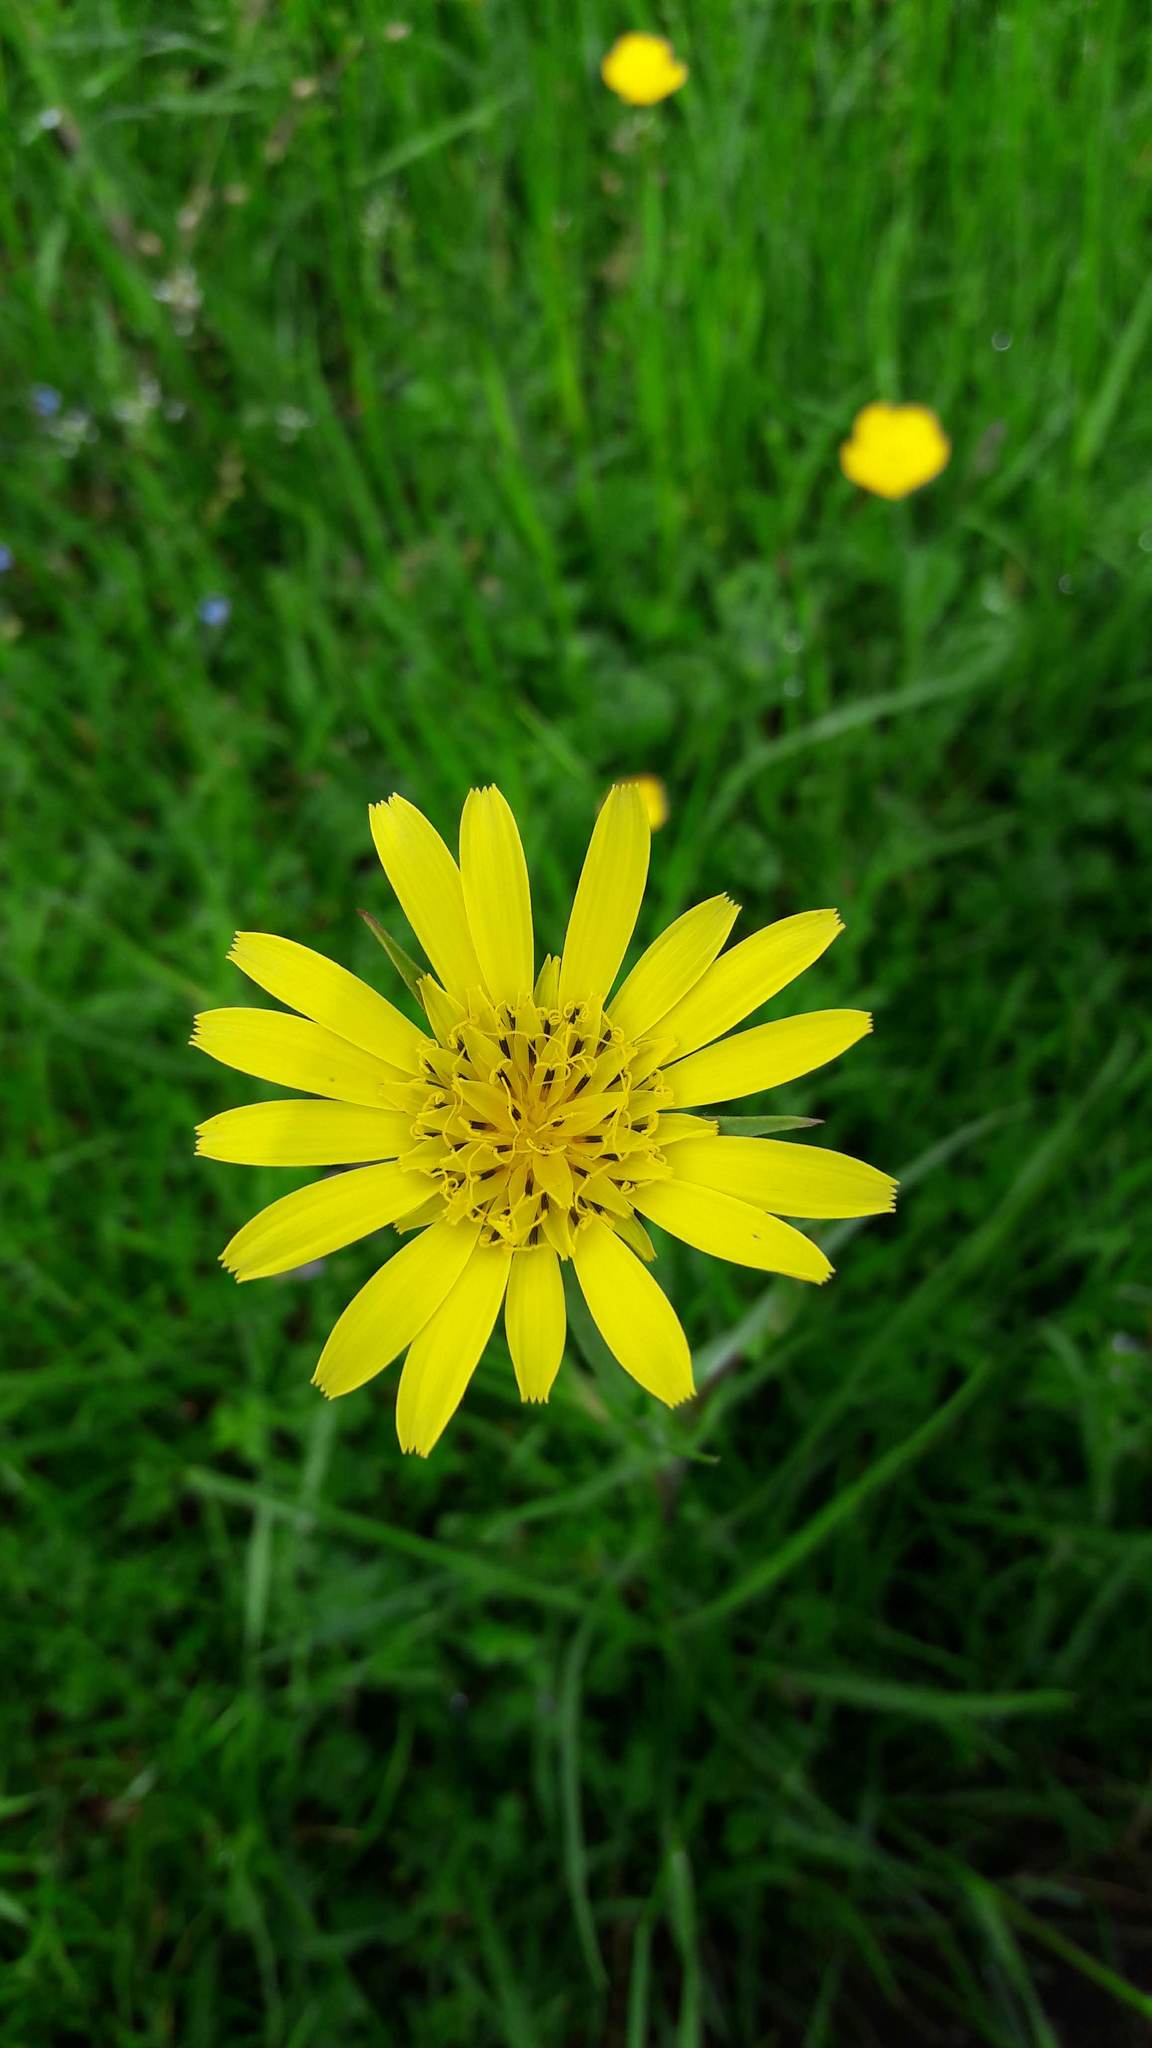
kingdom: Plantae
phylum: Tracheophyta
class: Magnoliopsida
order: Asterales
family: Asteraceae
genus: Tragopogon
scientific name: Tragopogon pratensis
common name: Goat's-beard
